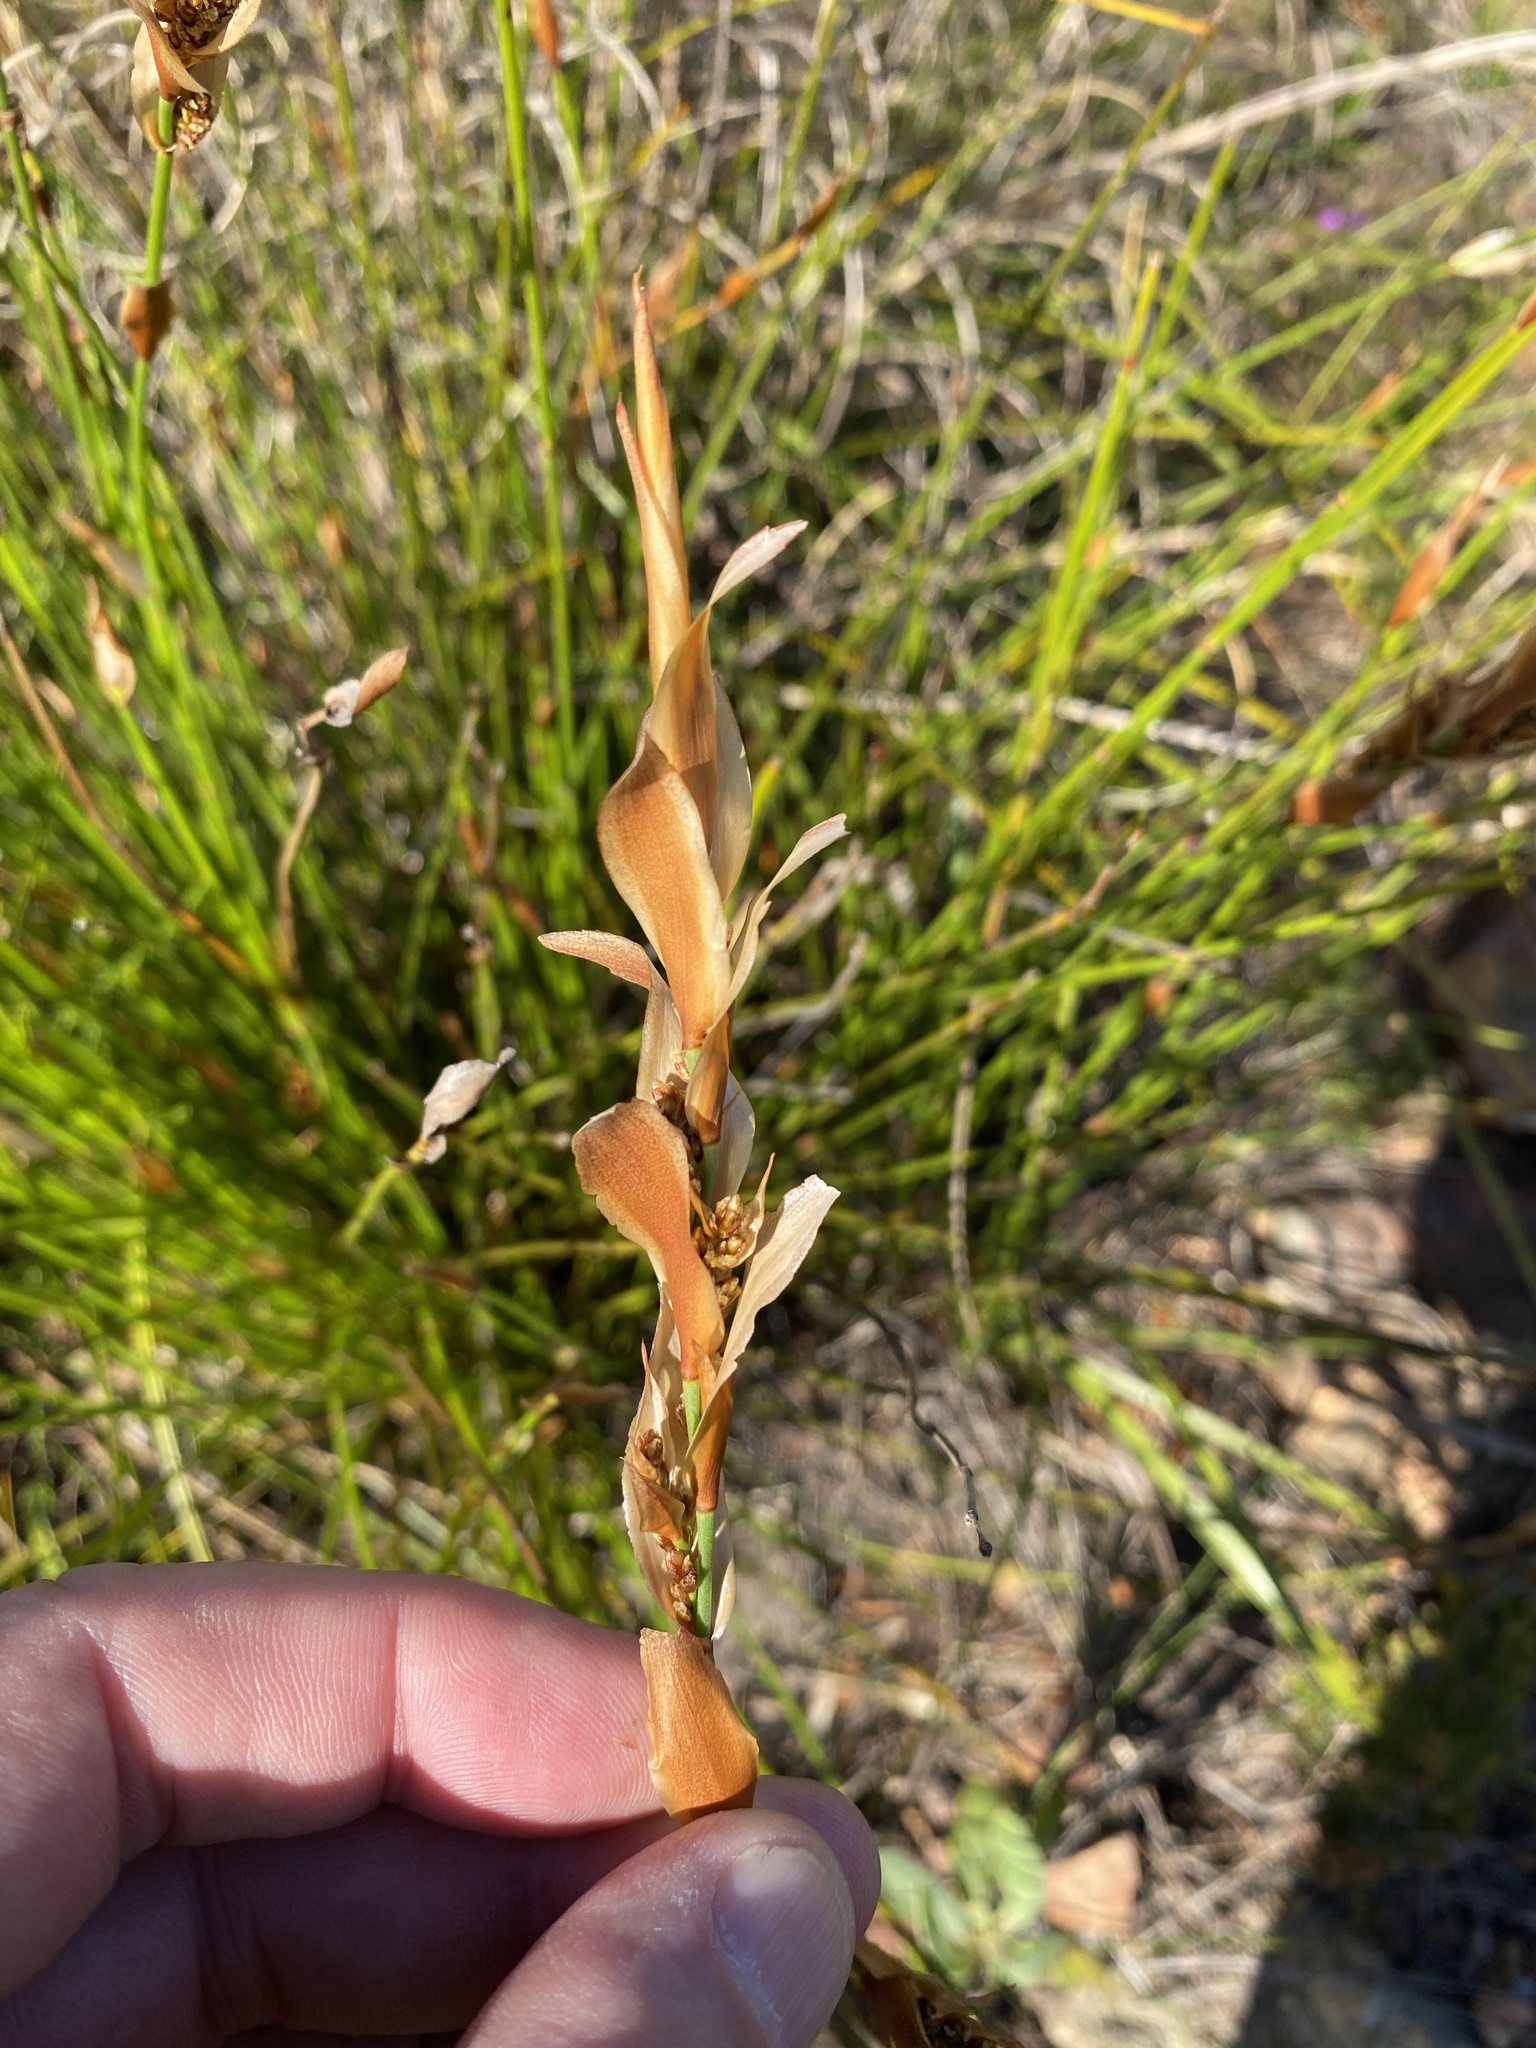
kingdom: Plantae
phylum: Tracheophyta
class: Liliopsida
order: Poales
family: Restionaceae
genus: Elegia
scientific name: Elegia equisetacea
